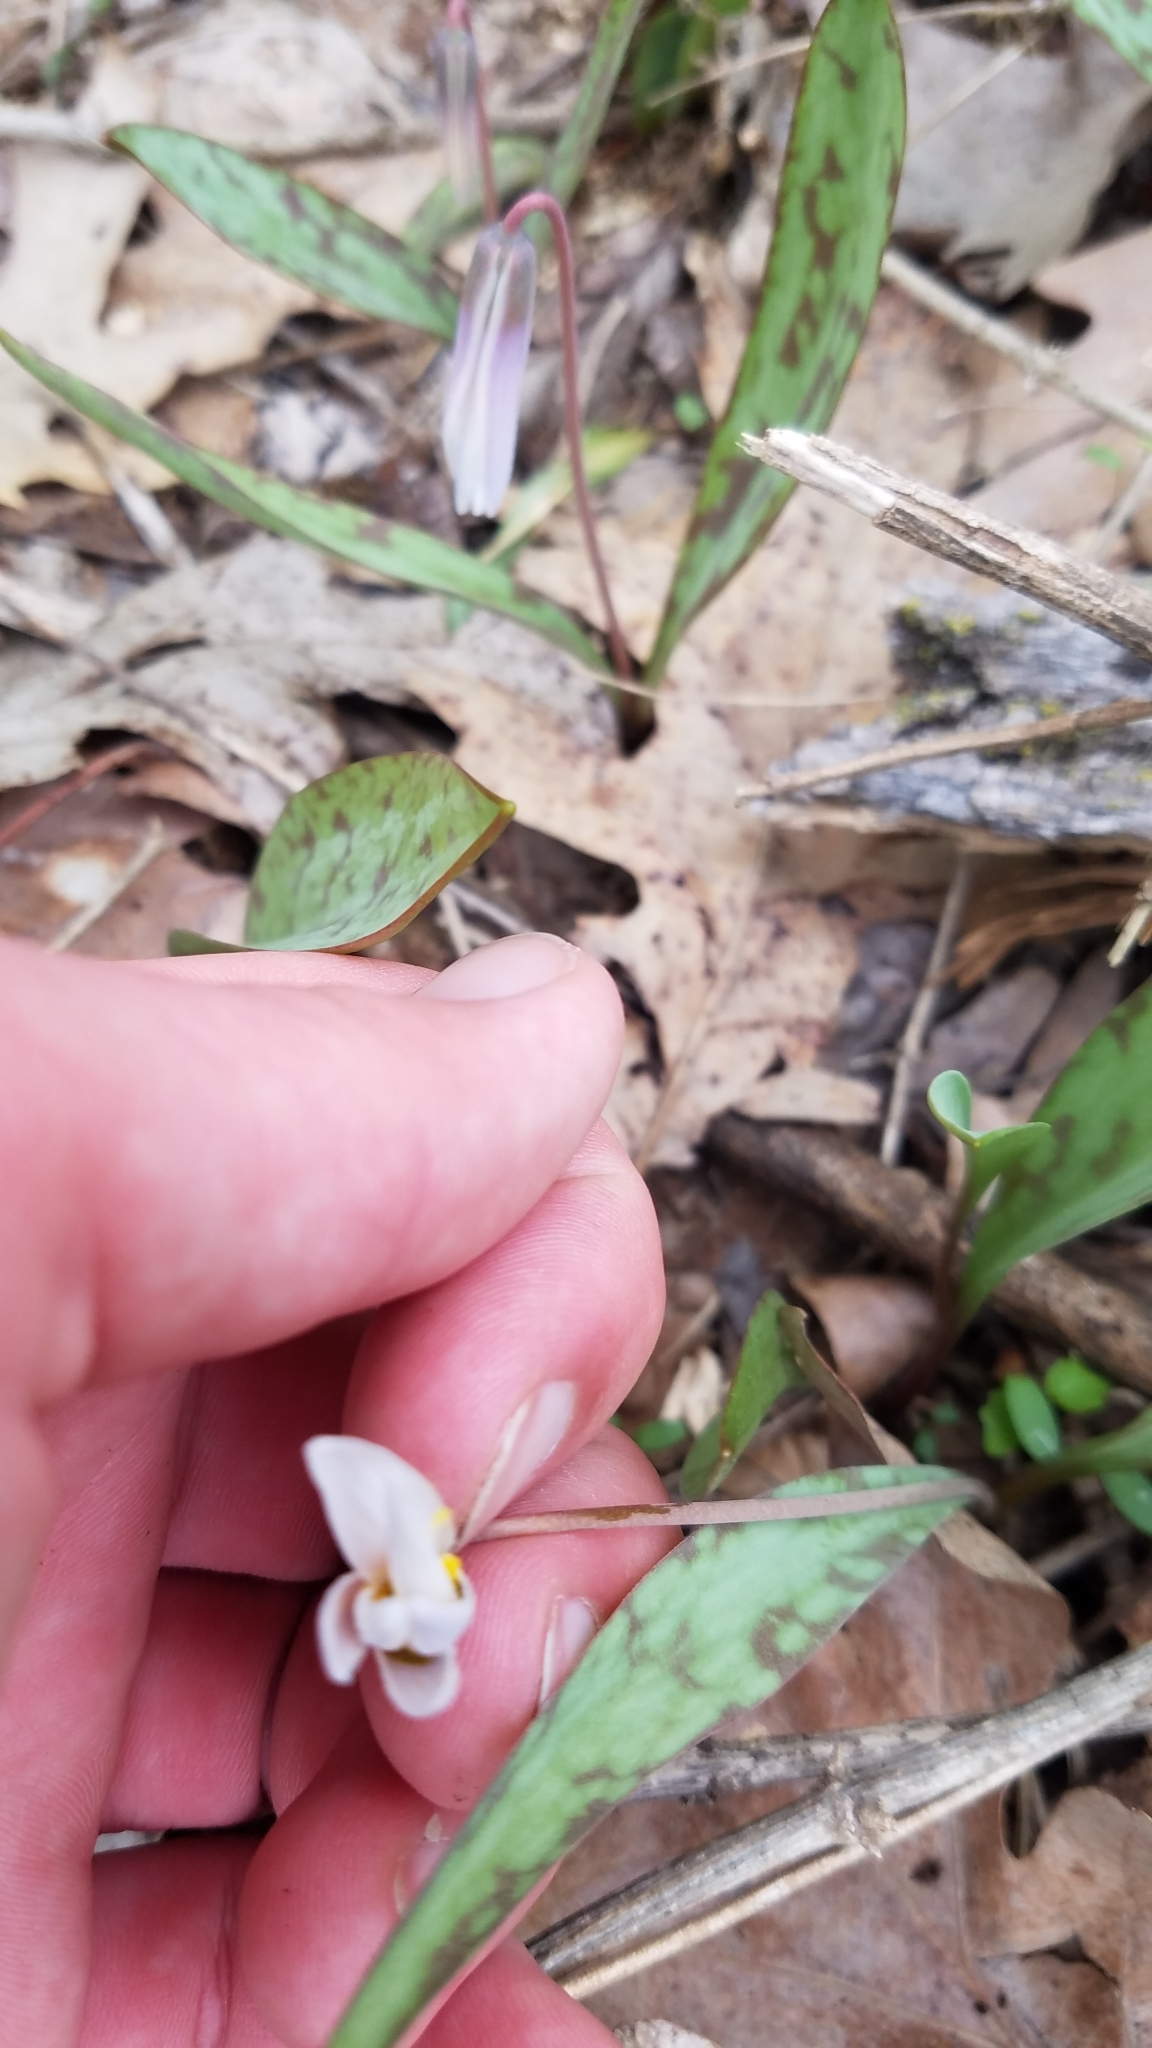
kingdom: Plantae
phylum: Tracheophyta
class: Liliopsida
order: Liliales
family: Liliaceae
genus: Erythronium
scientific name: Erythronium albidum
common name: White trout-lily
